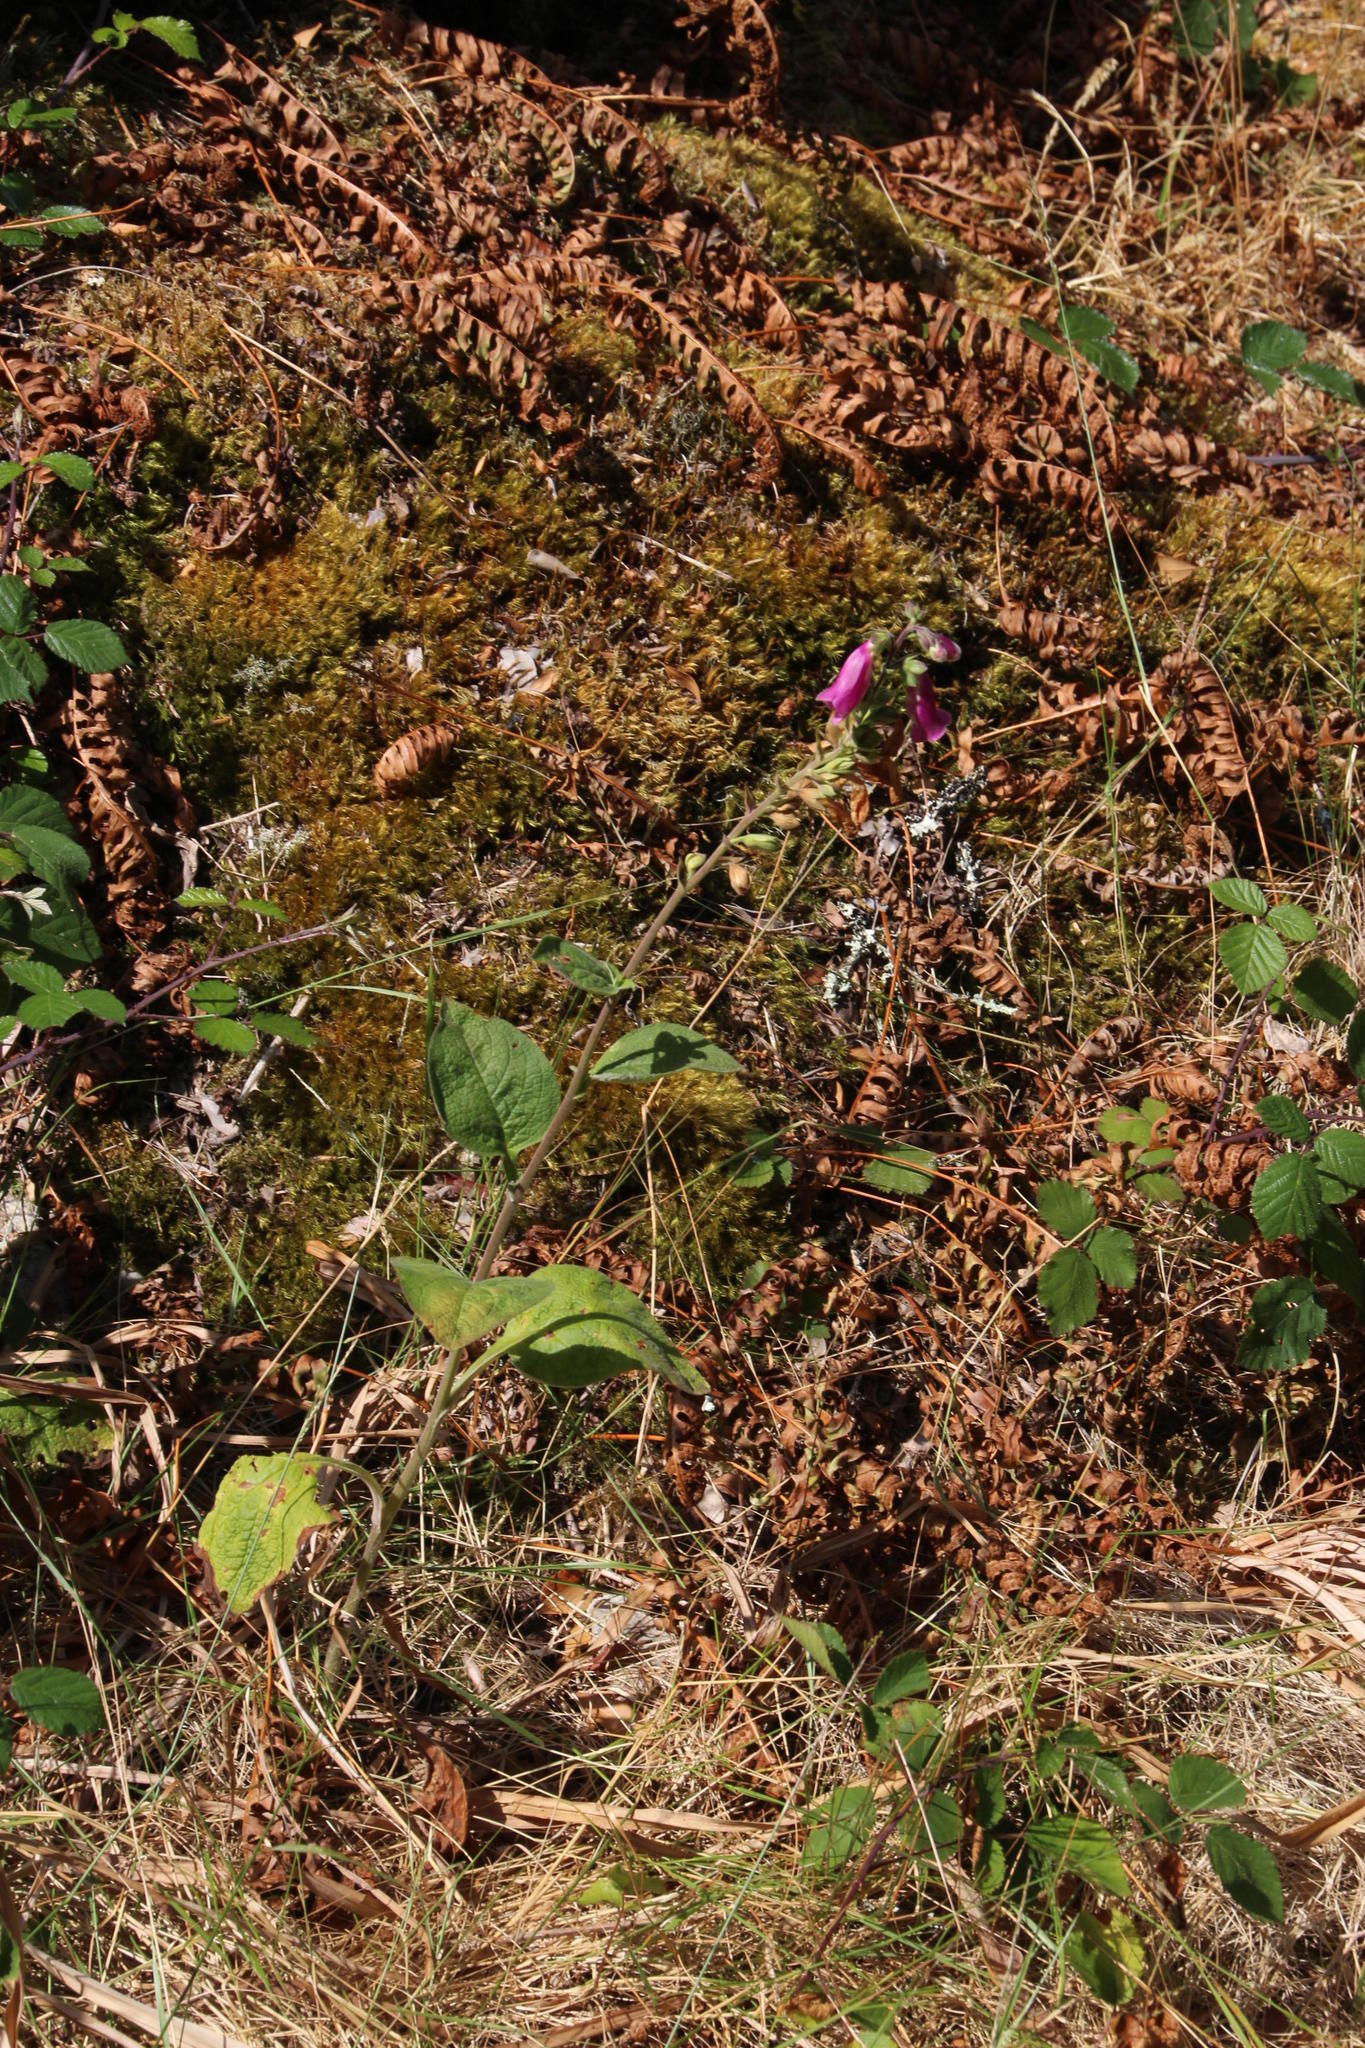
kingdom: Plantae
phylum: Tracheophyta
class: Magnoliopsida
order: Lamiales
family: Plantaginaceae
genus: Digitalis
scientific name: Digitalis purpurea
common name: Foxglove
